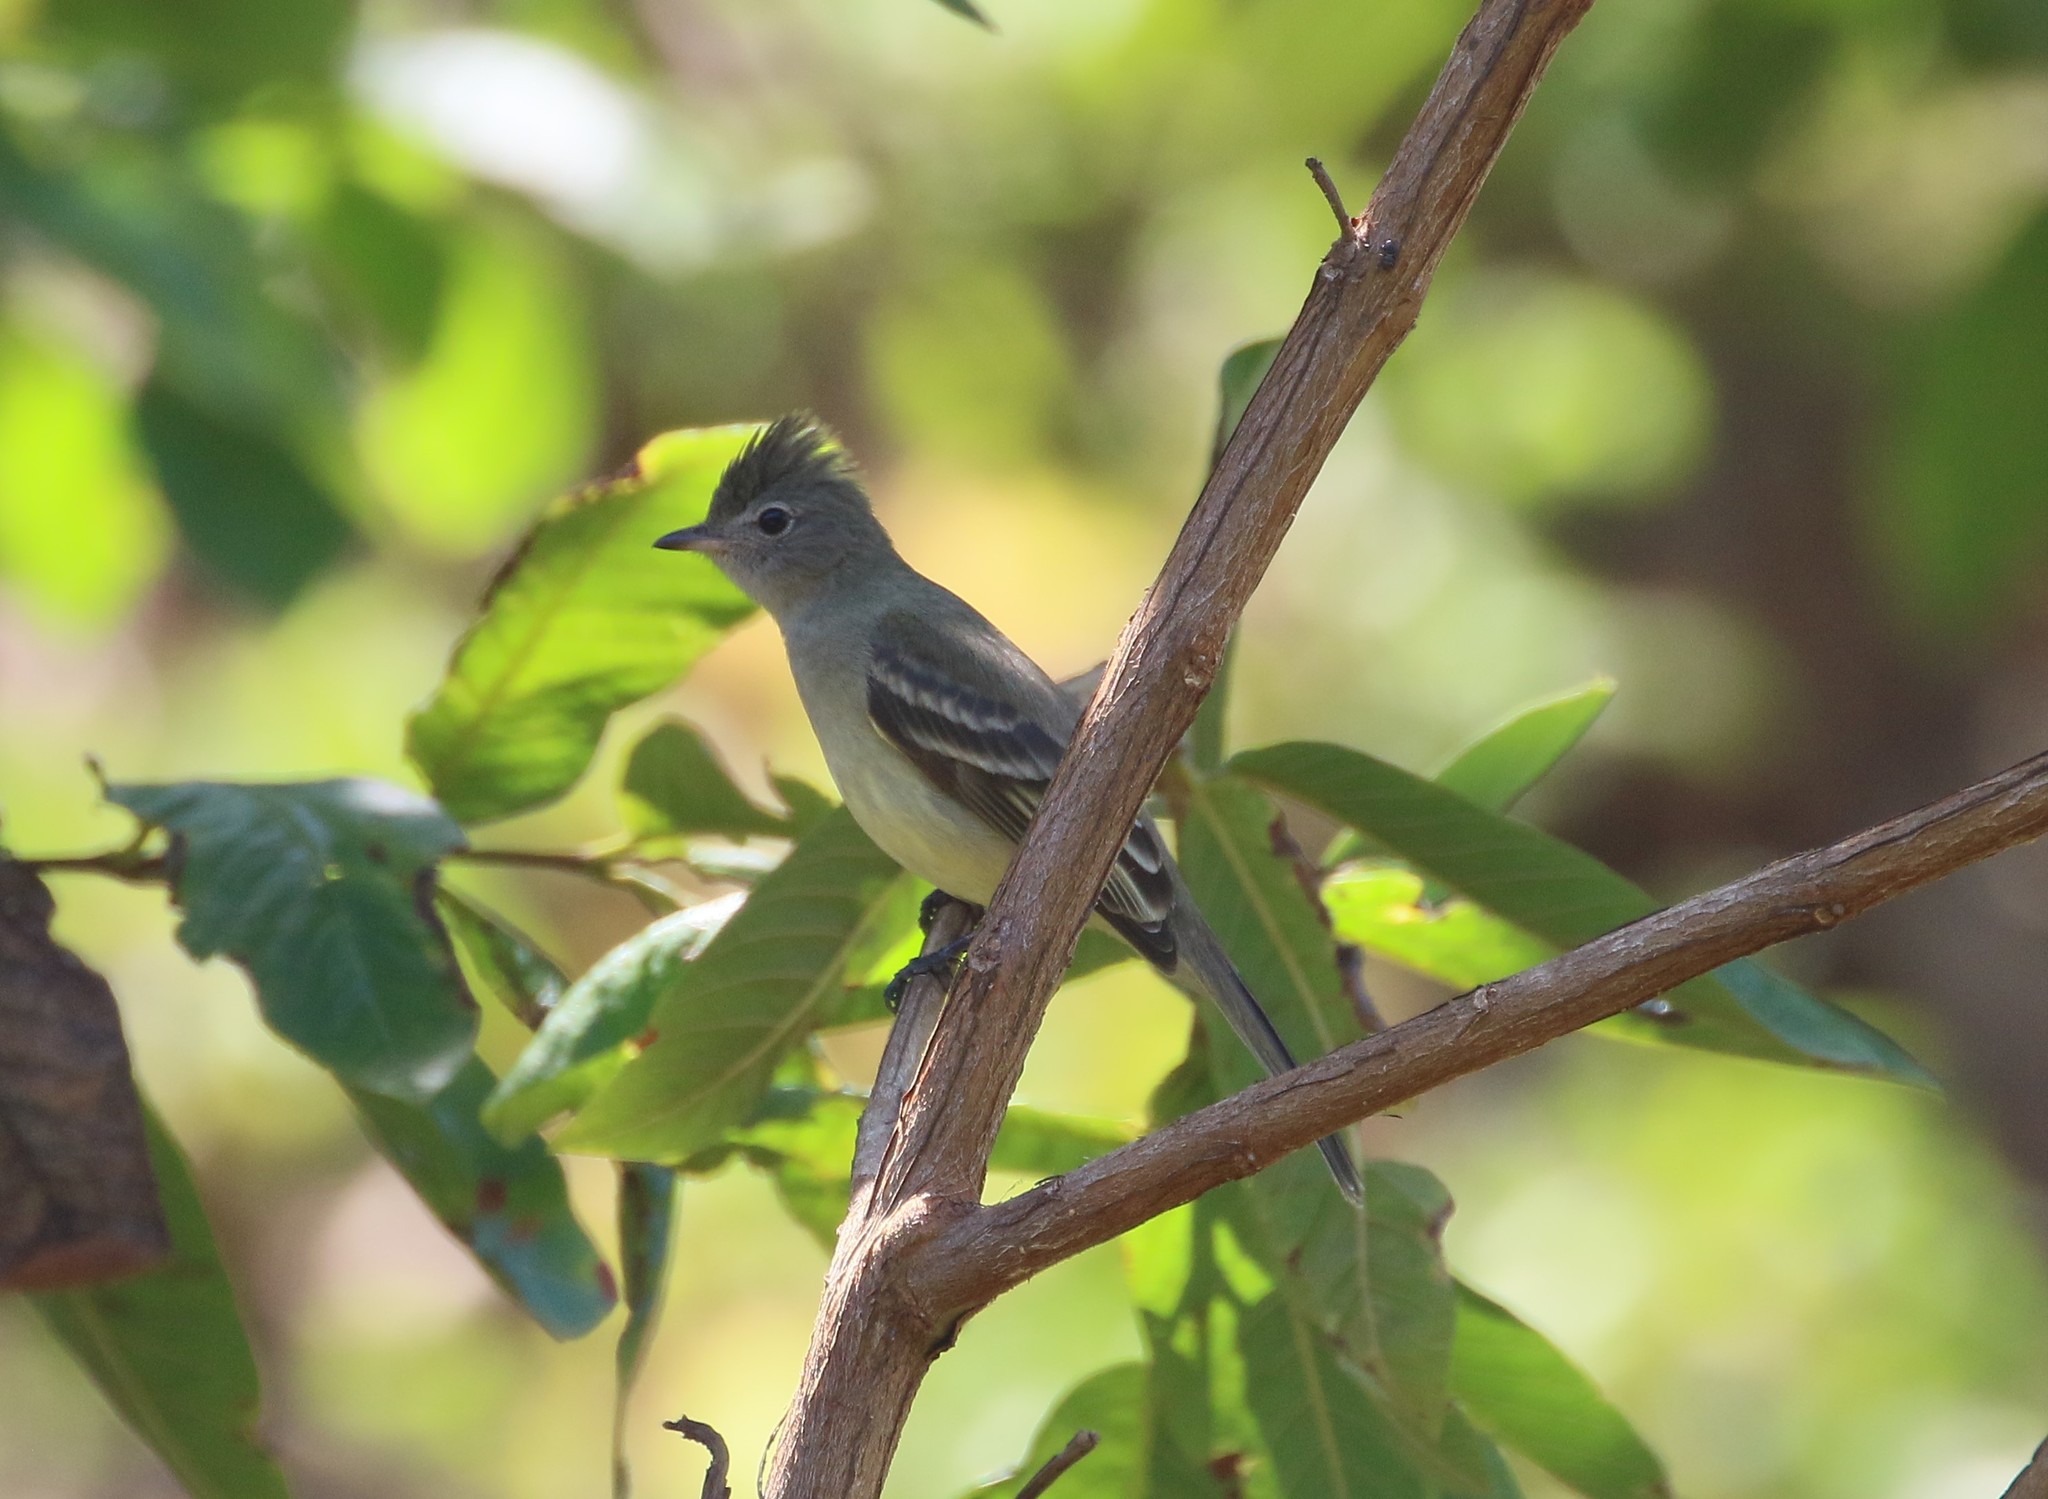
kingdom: Animalia
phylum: Chordata
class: Aves
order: Passeriformes
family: Tyrannidae
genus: Elaenia
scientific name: Elaenia flavogaster
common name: Yellow-bellied elaenia
